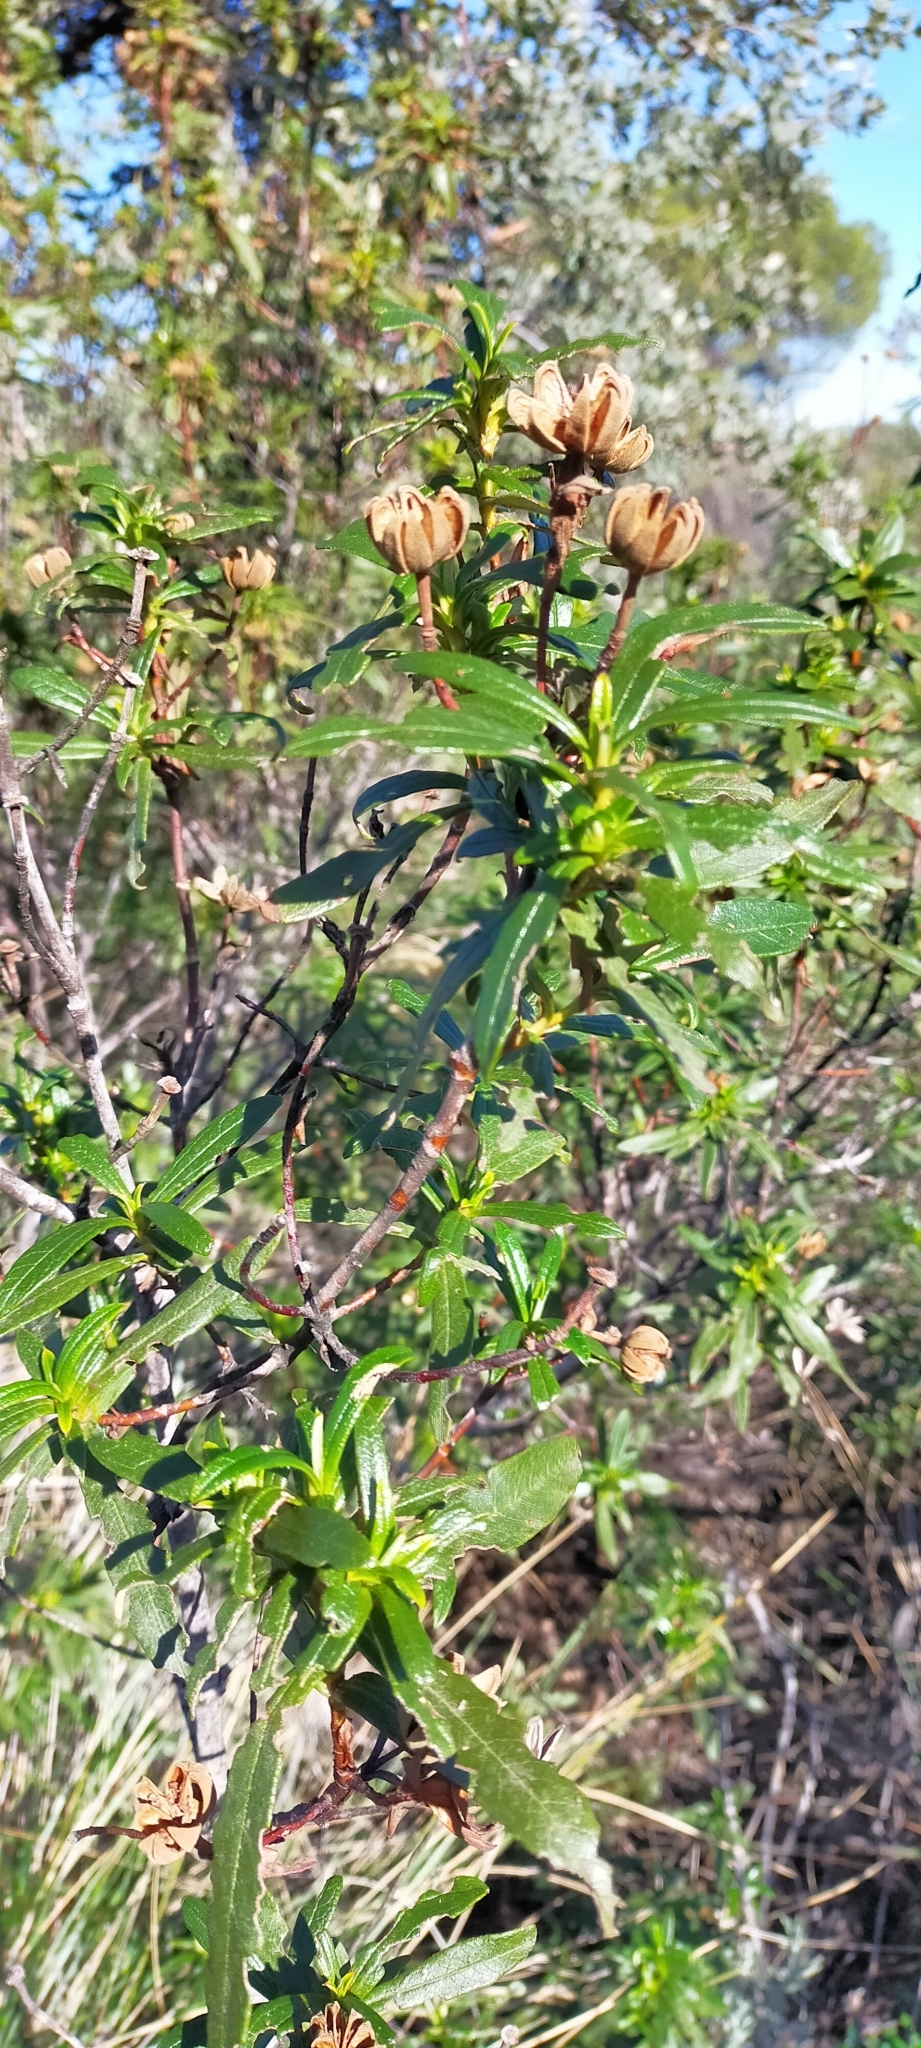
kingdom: Plantae
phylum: Tracheophyta
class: Magnoliopsida
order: Malvales
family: Cistaceae
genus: Cistus
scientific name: Cistus ladanifer
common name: Common gum cistus
